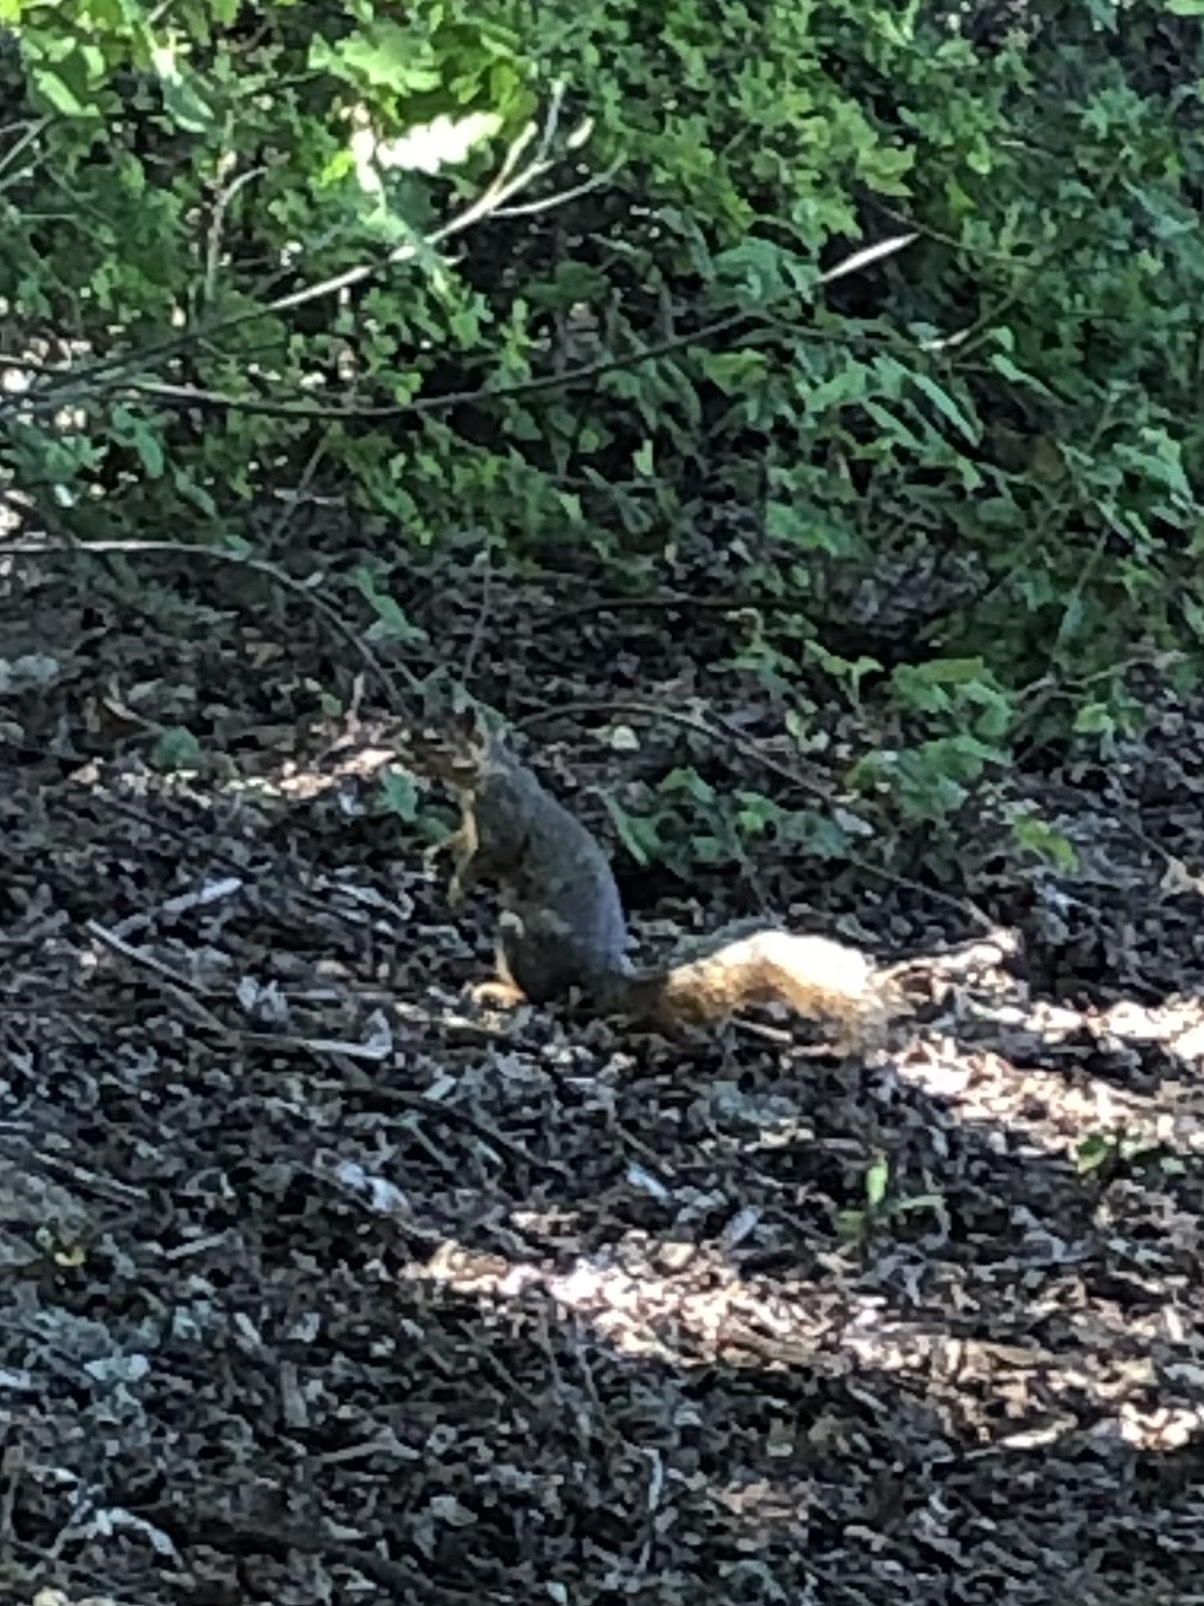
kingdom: Animalia
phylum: Chordata
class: Mammalia
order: Rodentia
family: Sciuridae
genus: Sciurus
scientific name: Sciurus niger
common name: Fox squirrel
